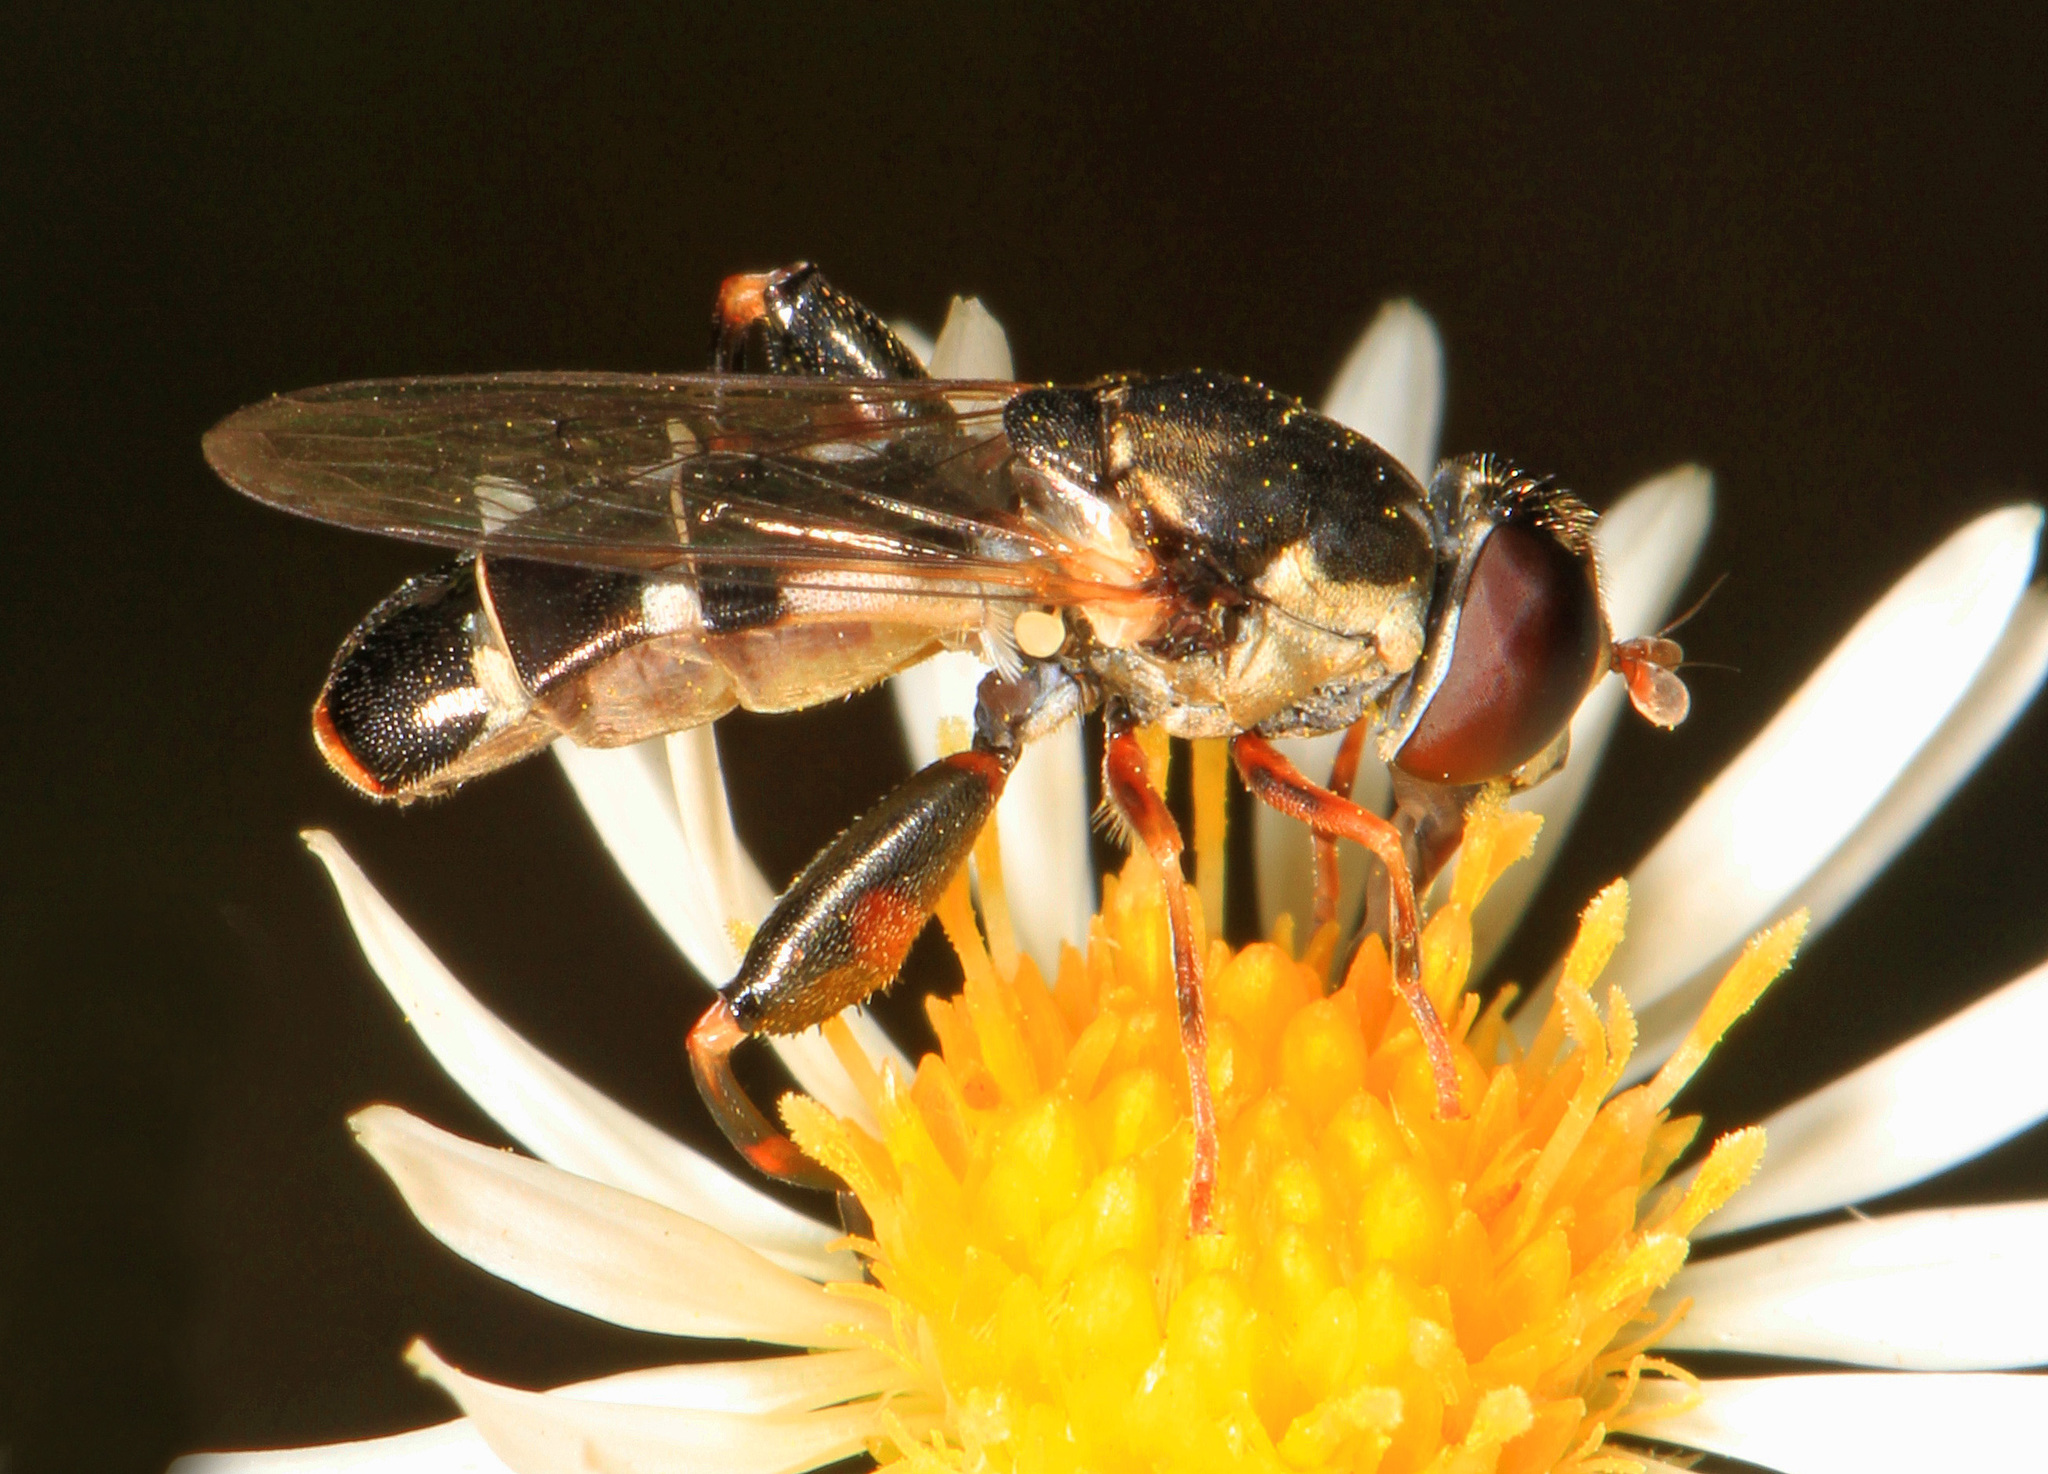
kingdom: Animalia
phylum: Arthropoda
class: Insecta
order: Diptera
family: Syrphidae
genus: Syritta
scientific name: Syritta pipiens
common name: Hover fly
